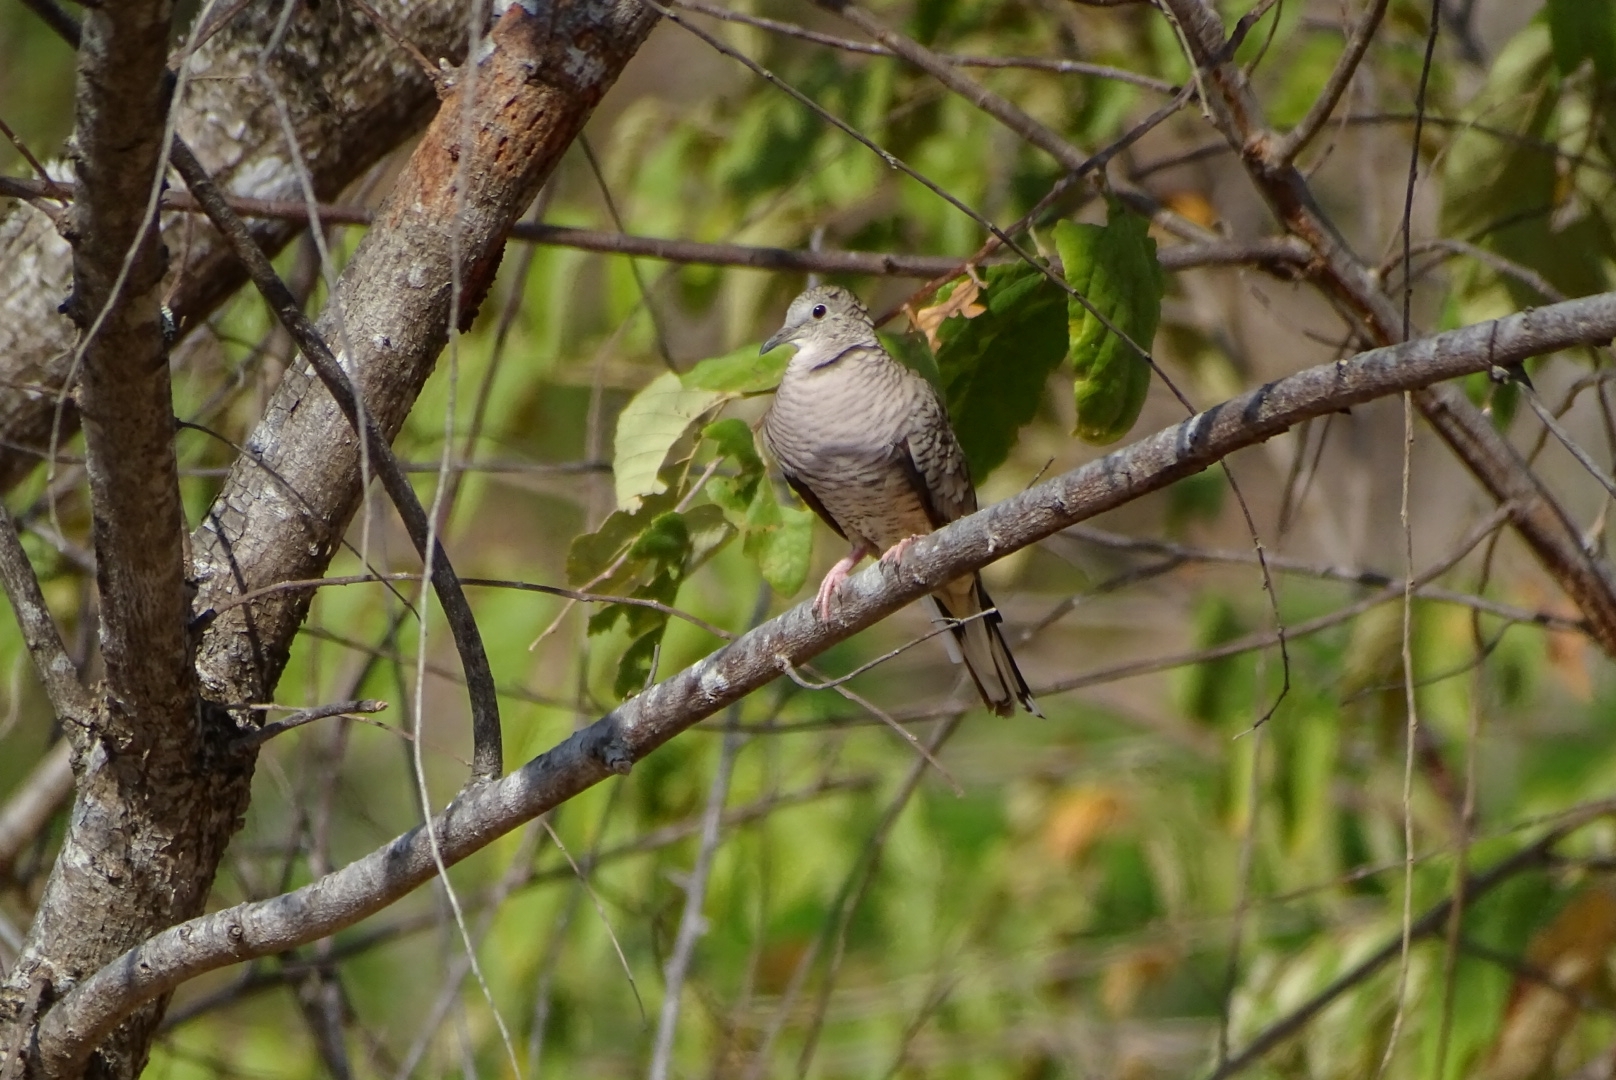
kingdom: Animalia
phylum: Chordata
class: Aves
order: Columbiformes
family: Columbidae
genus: Columbina
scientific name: Columbina inca
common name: Inca dove
